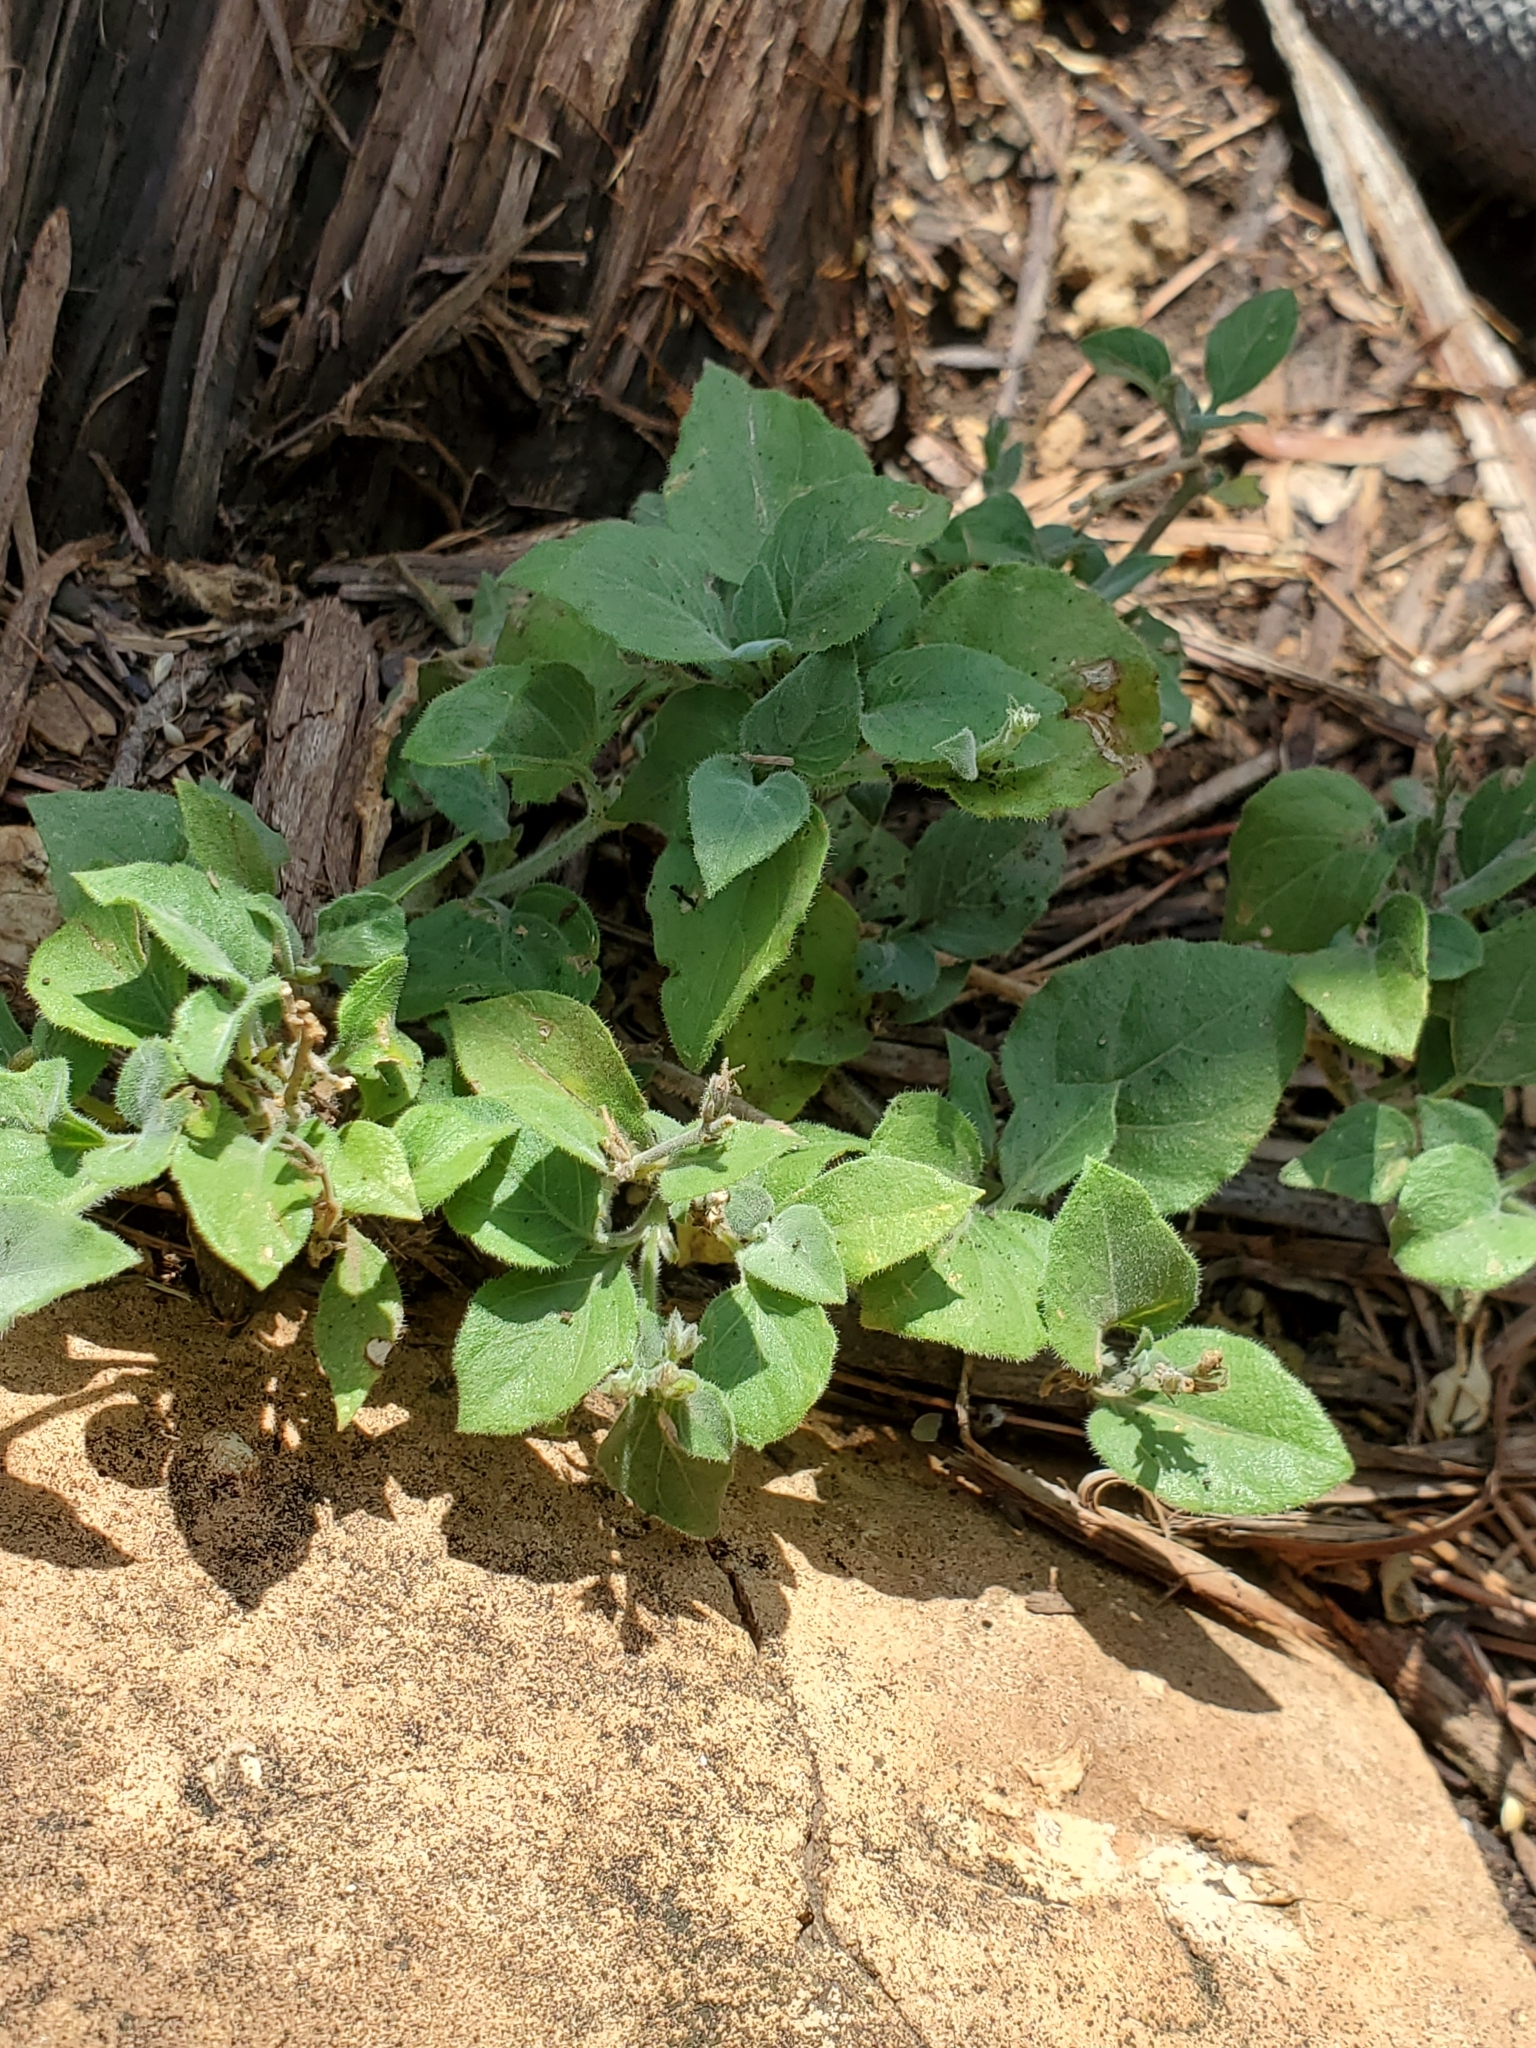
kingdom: Plantae
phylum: Tracheophyta
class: Magnoliopsida
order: Lamiales
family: Acanthaceae
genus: Carlowrightia
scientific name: Carlowrightia torreyana
